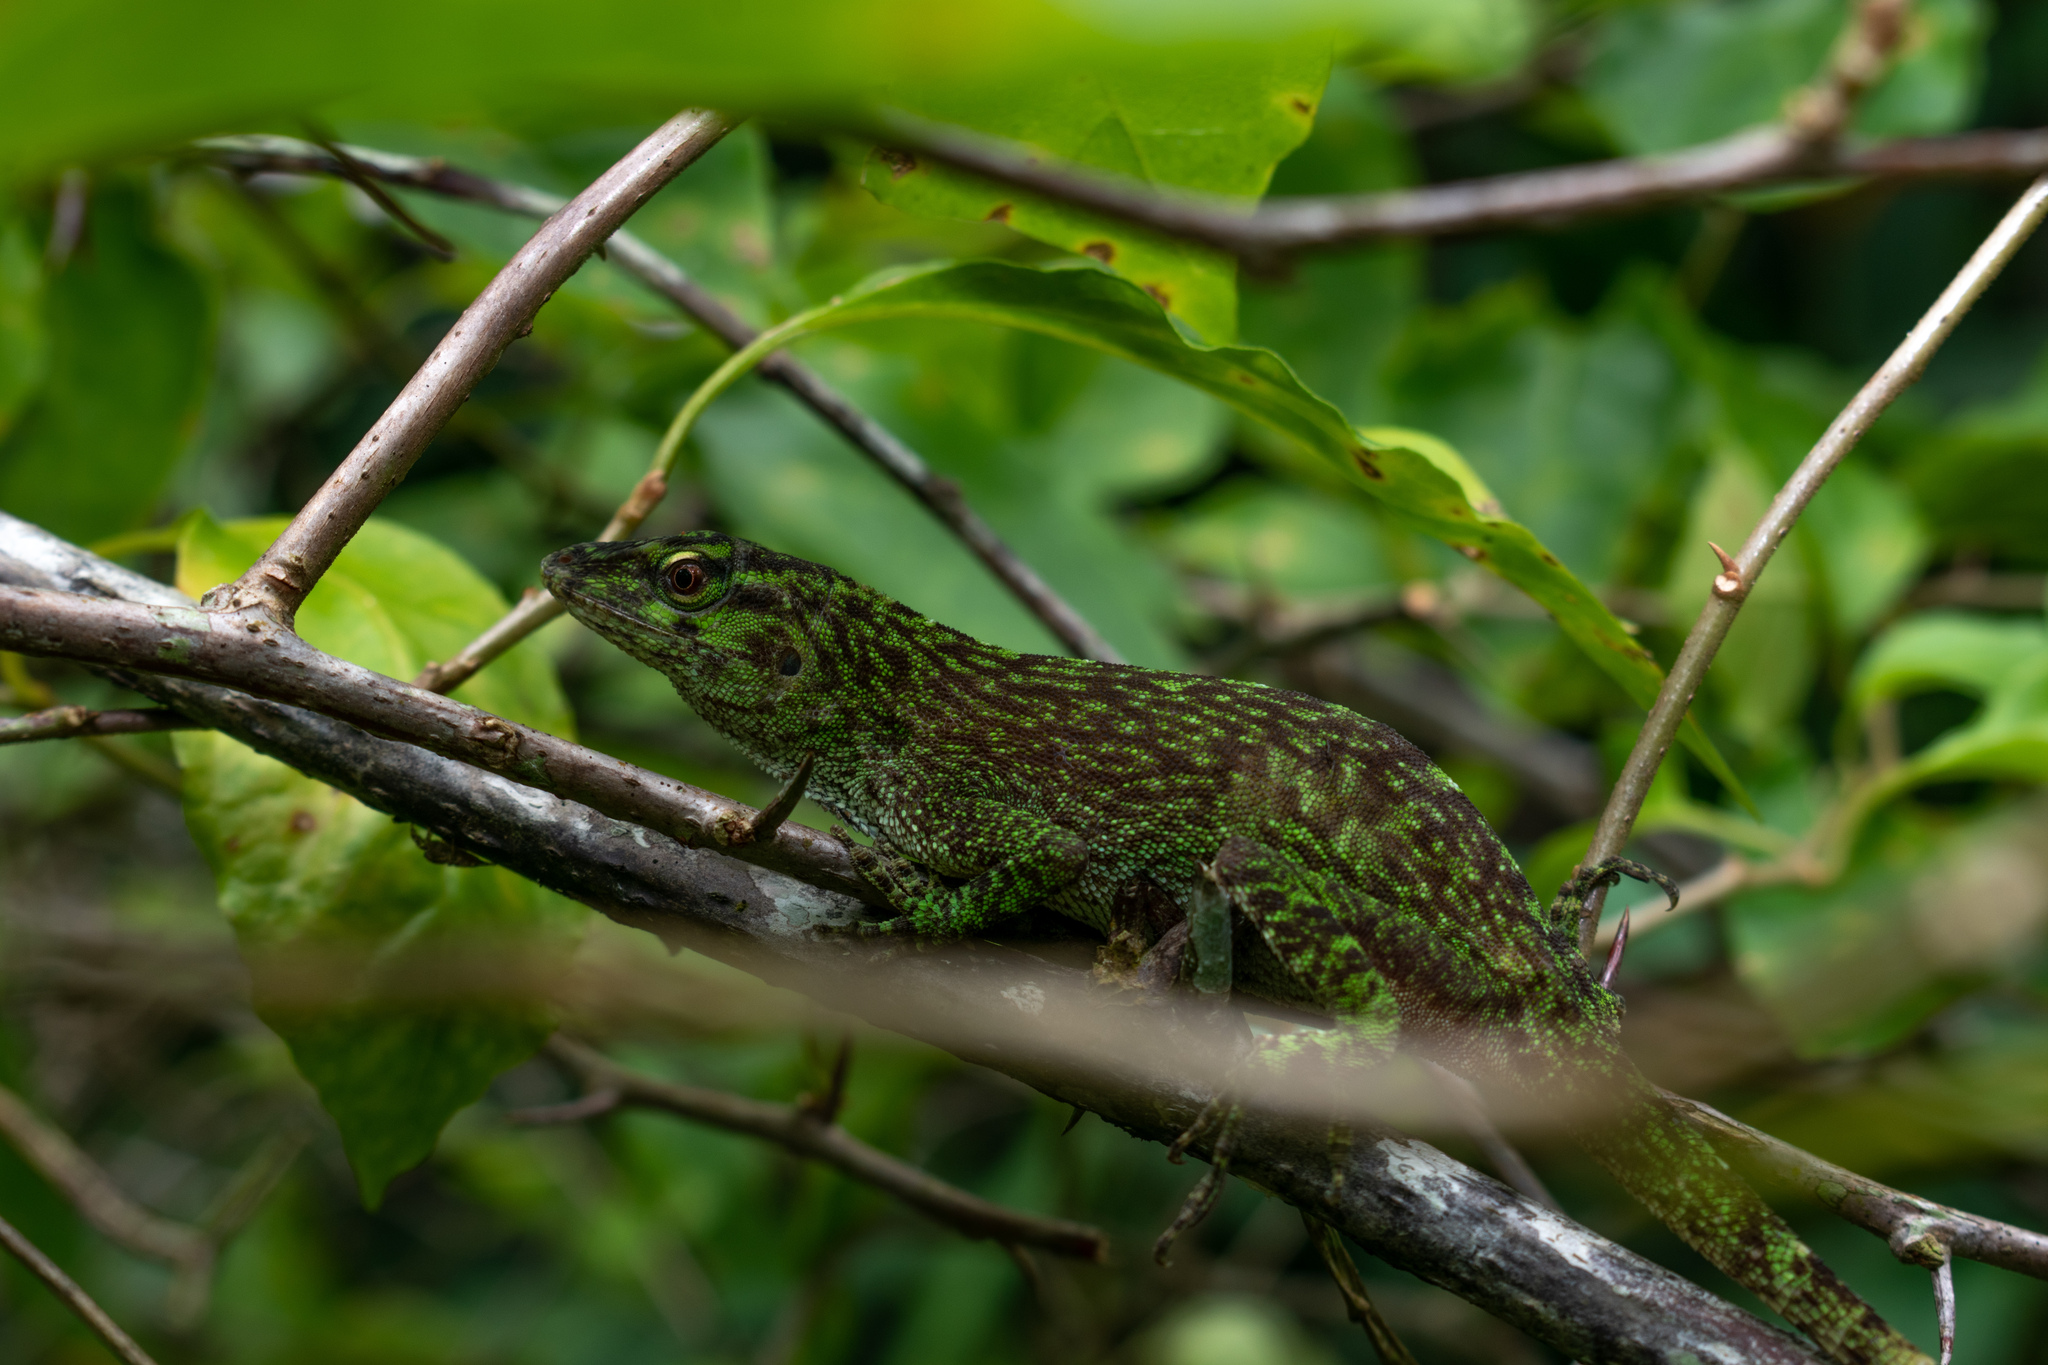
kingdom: Animalia
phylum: Chordata
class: Squamata
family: Dactyloidae
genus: Anolis
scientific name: Anolis biporcatus
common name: Giant green anole
